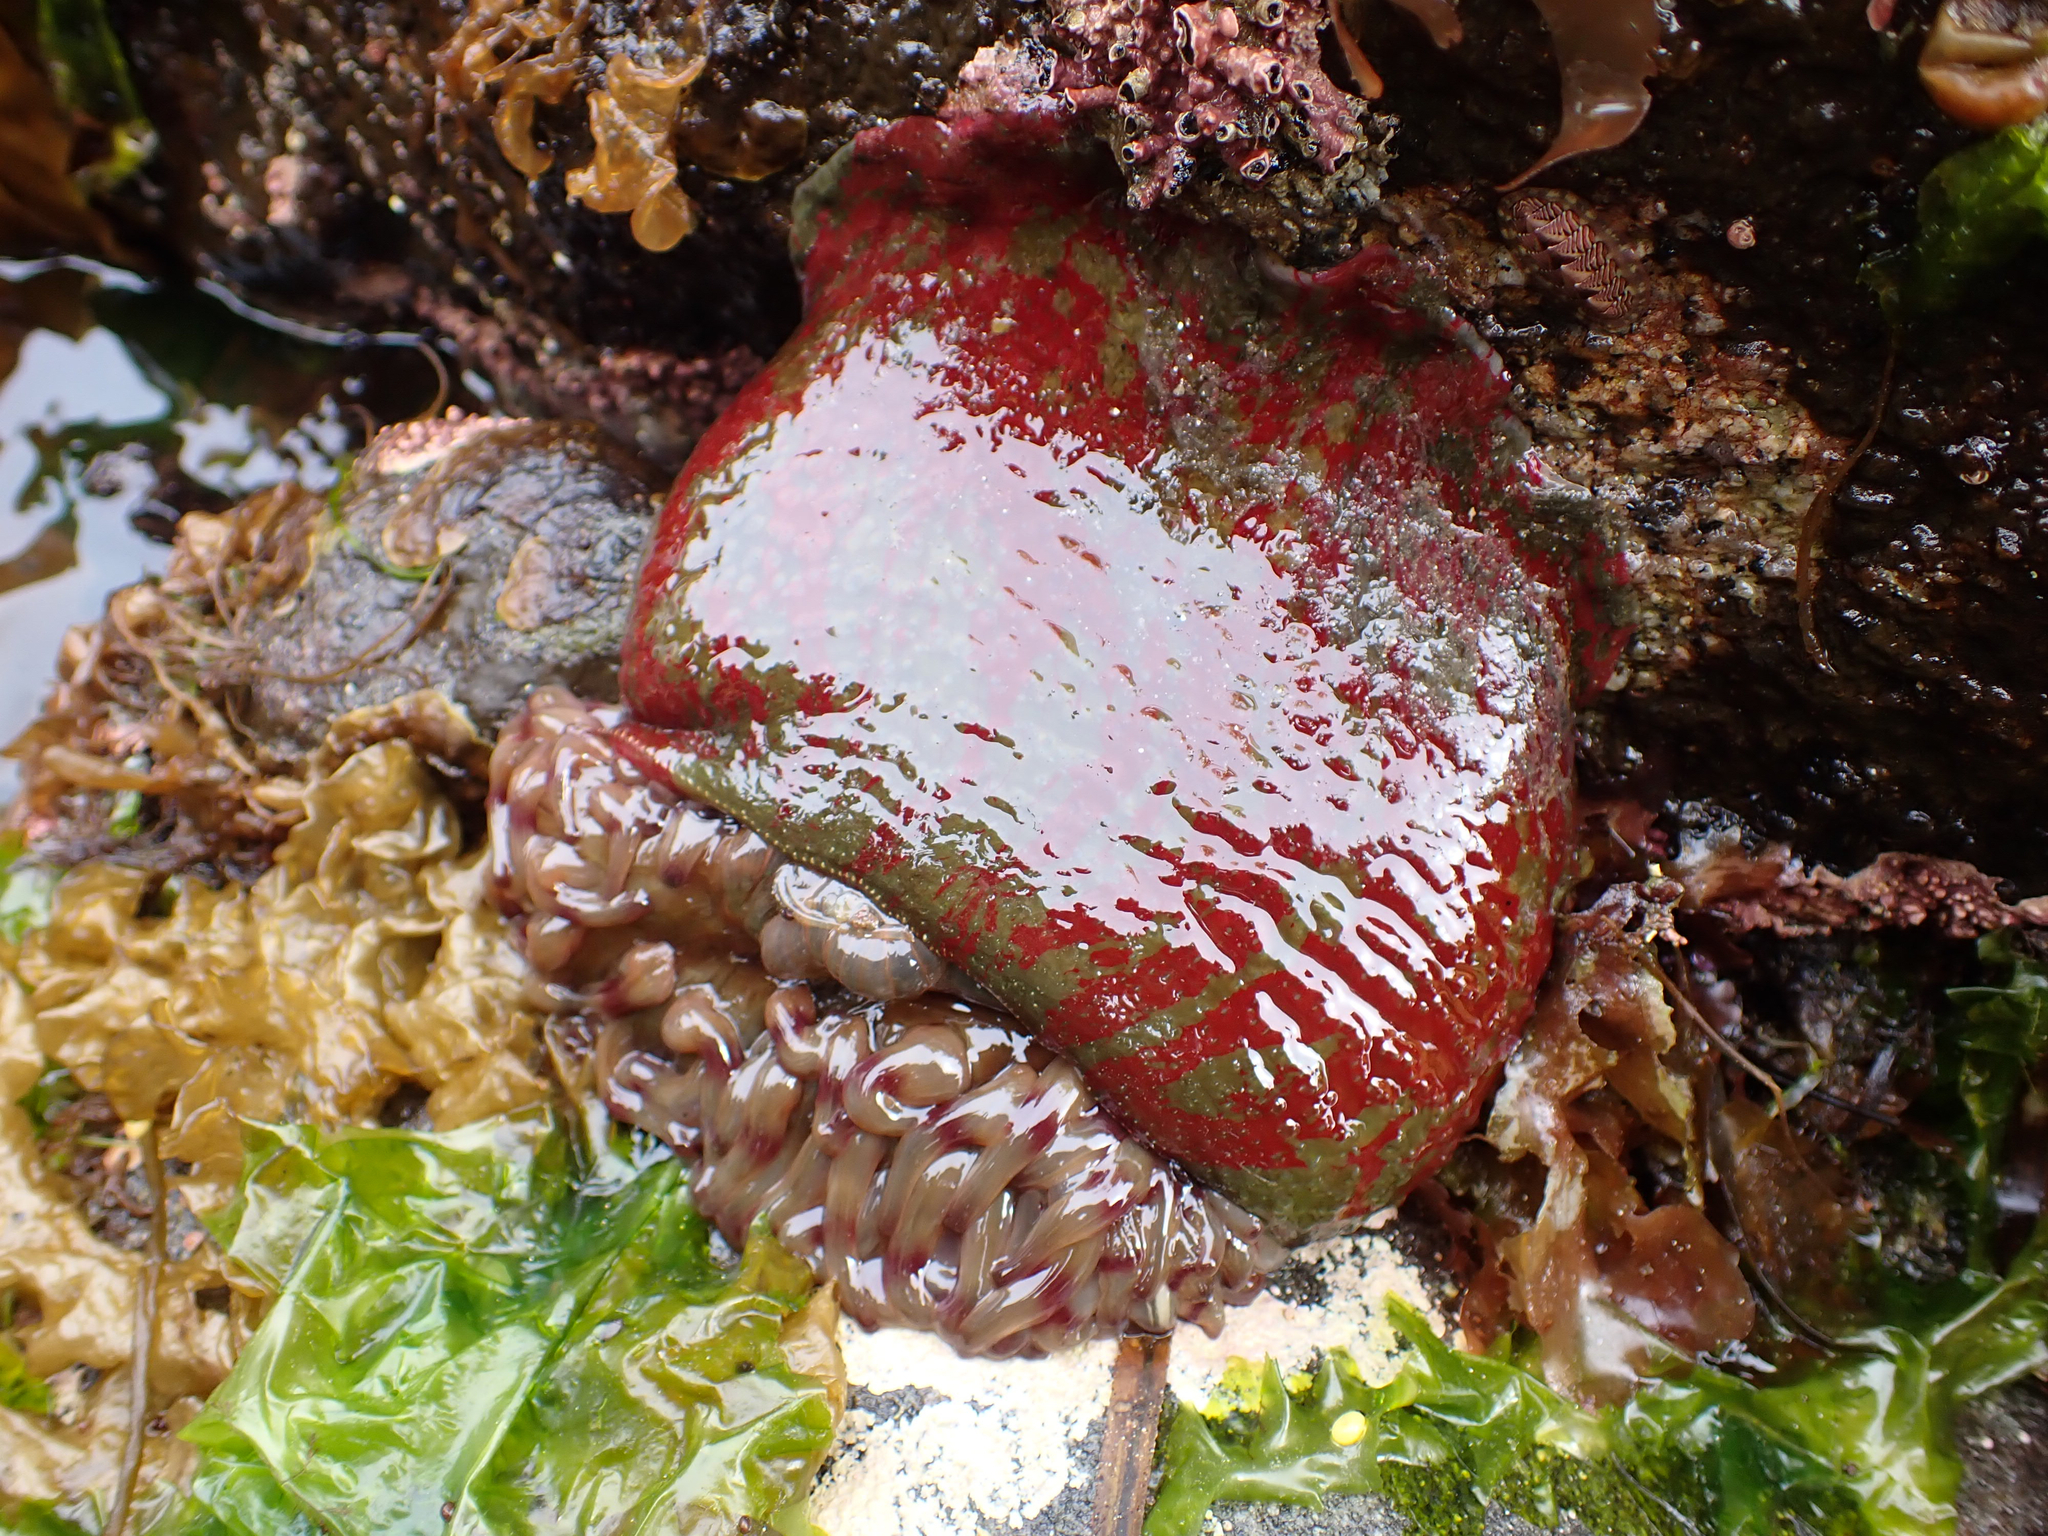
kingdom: Animalia
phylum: Cnidaria
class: Anthozoa
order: Actiniaria
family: Actiniidae
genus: Urticina
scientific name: Urticina grebelnyi
